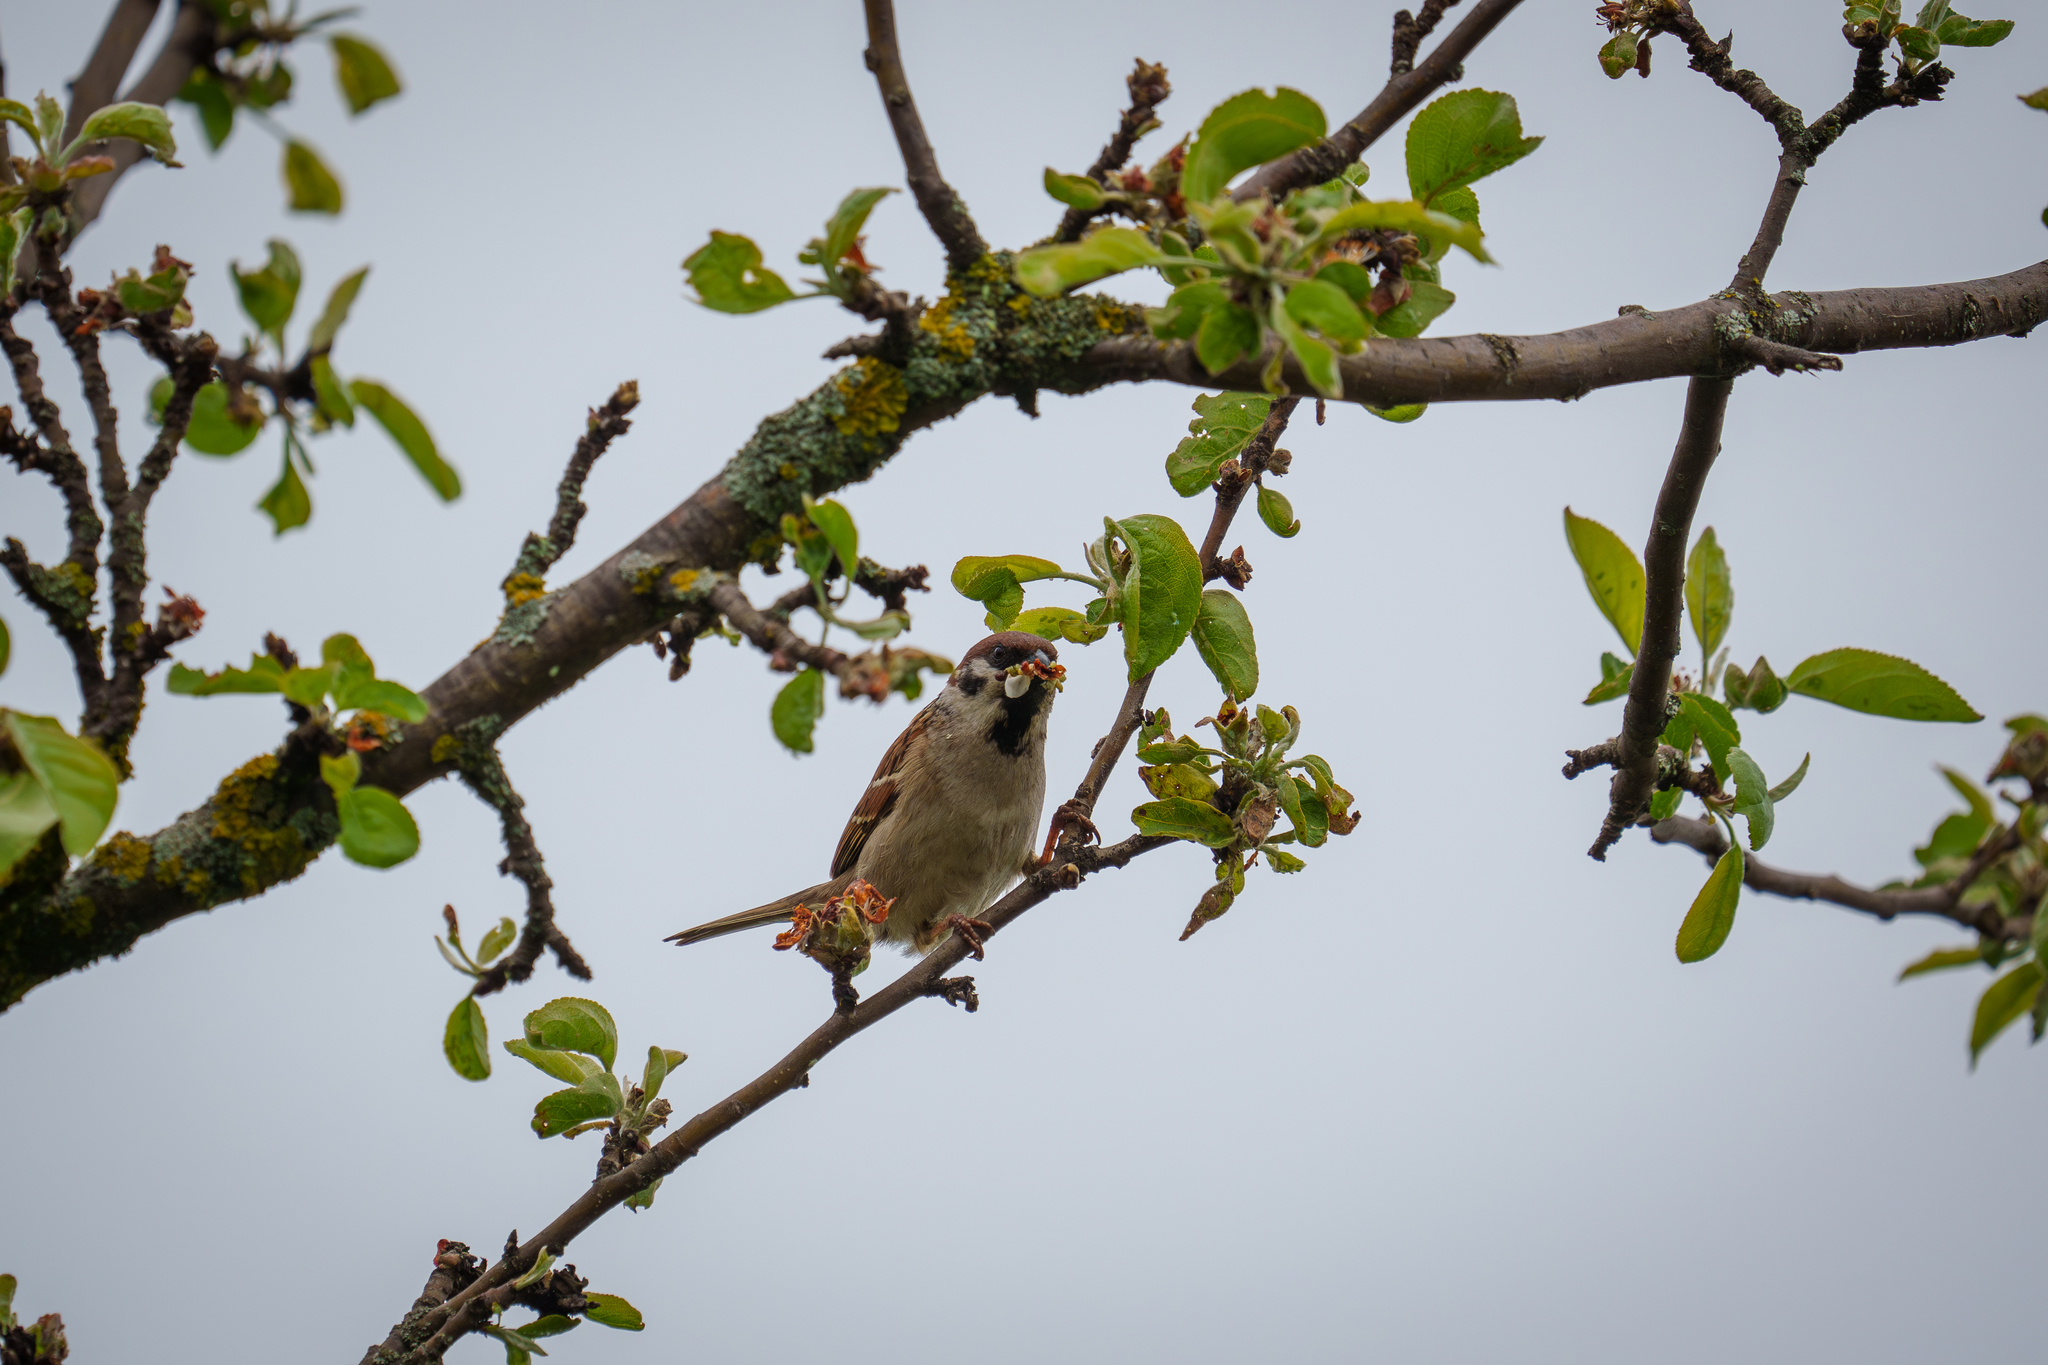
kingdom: Animalia
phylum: Chordata
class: Aves
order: Passeriformes
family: Passeridae
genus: Passer
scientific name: Passer montanus
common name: Eurasian tree sparrow
